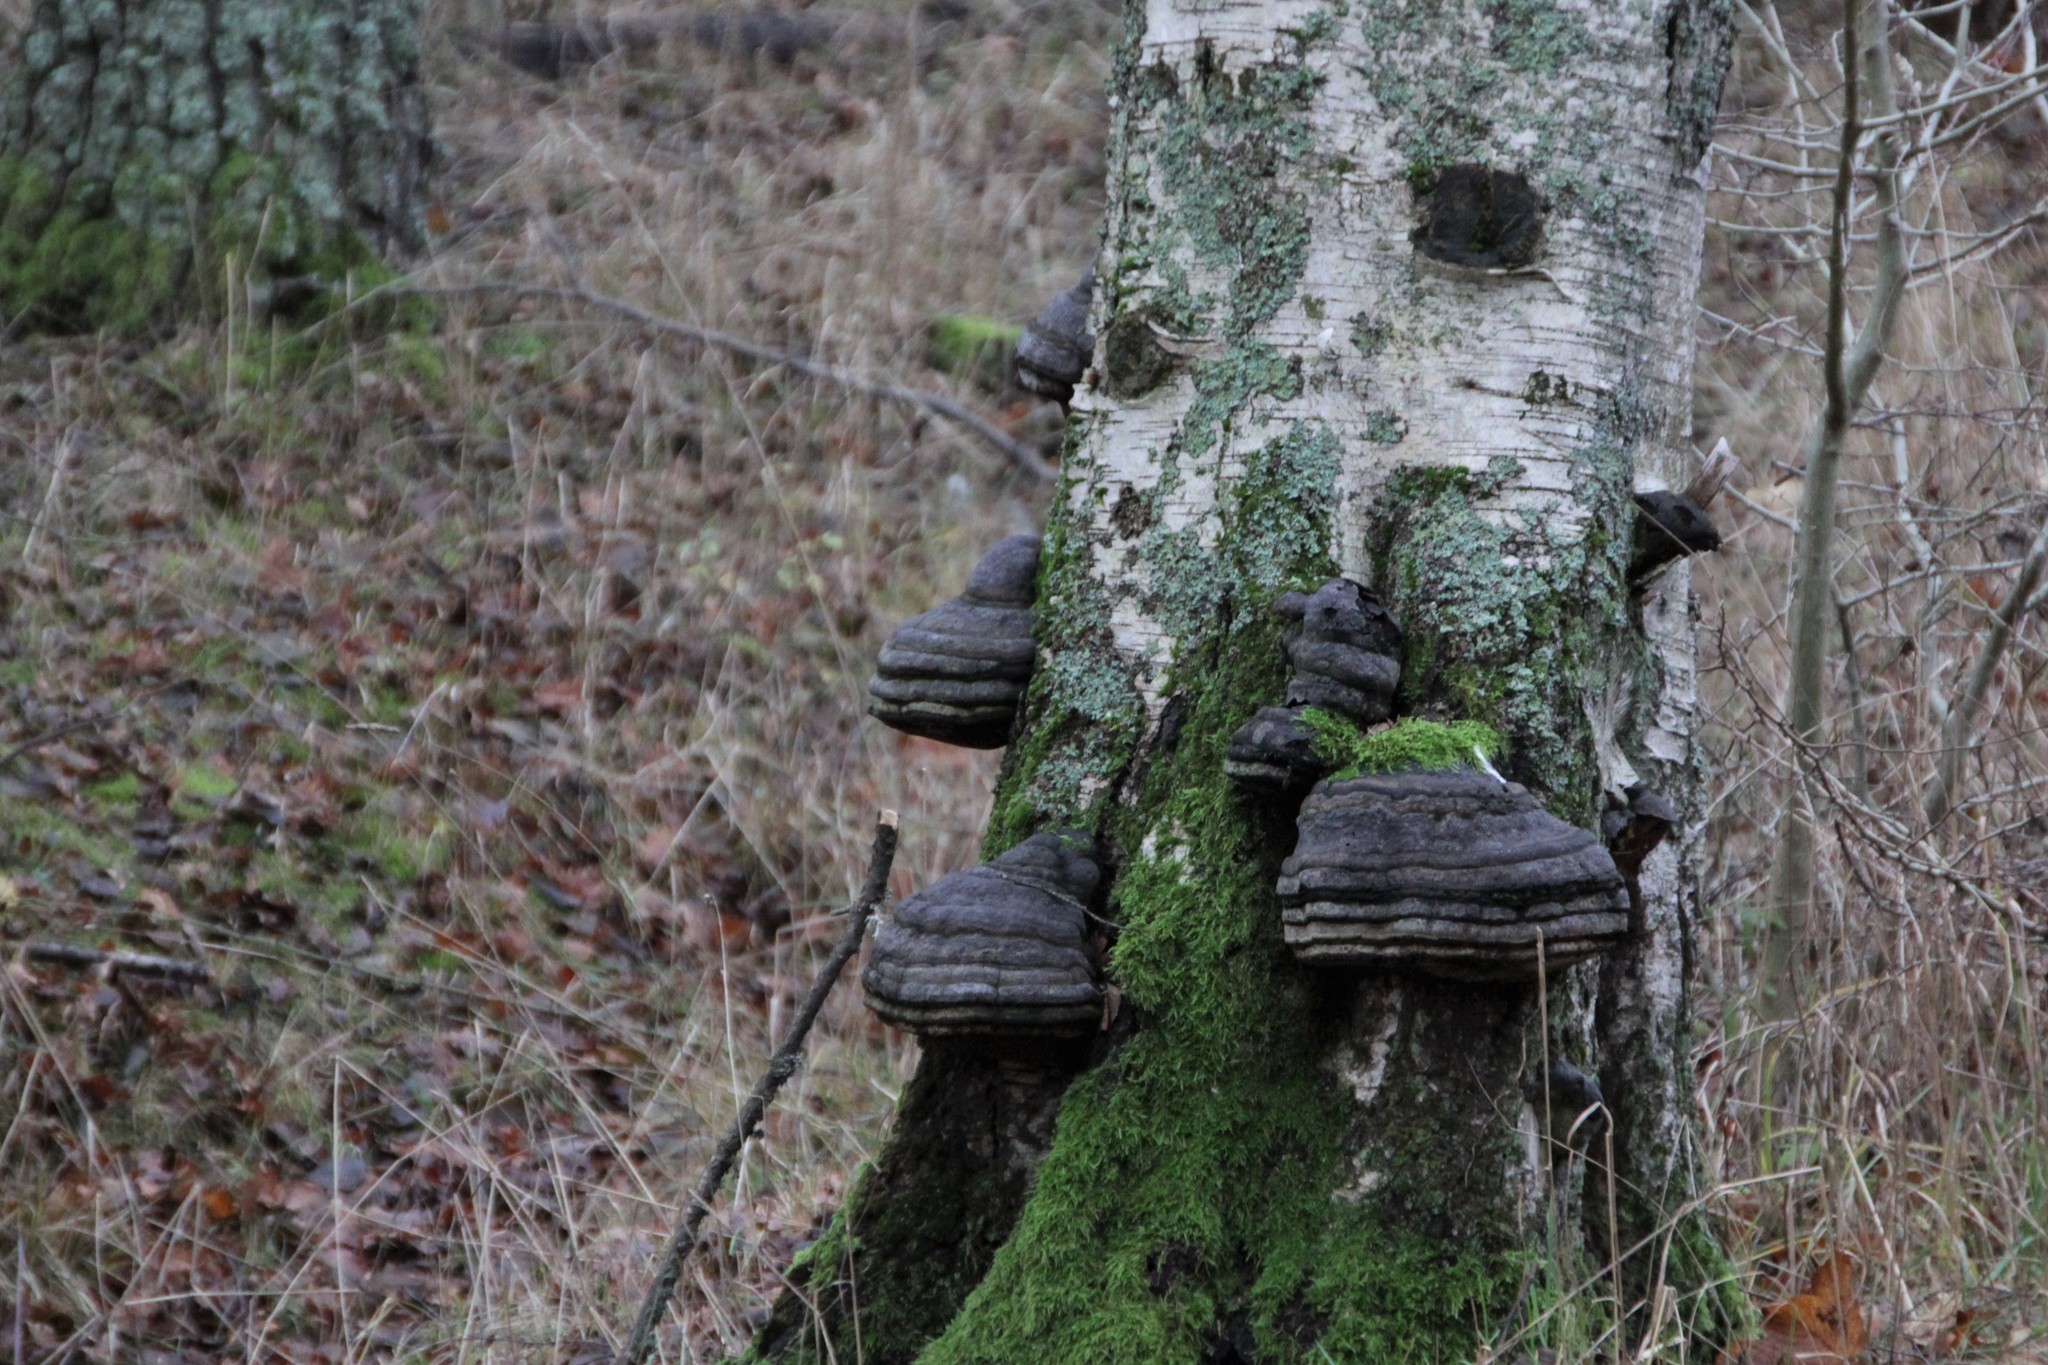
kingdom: Fungi
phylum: Basidiomycota
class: Agaricomycetes
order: Polyporales
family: Polyporaceae
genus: Fomes
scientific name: Fomes fomentarius
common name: Hoof fungus
